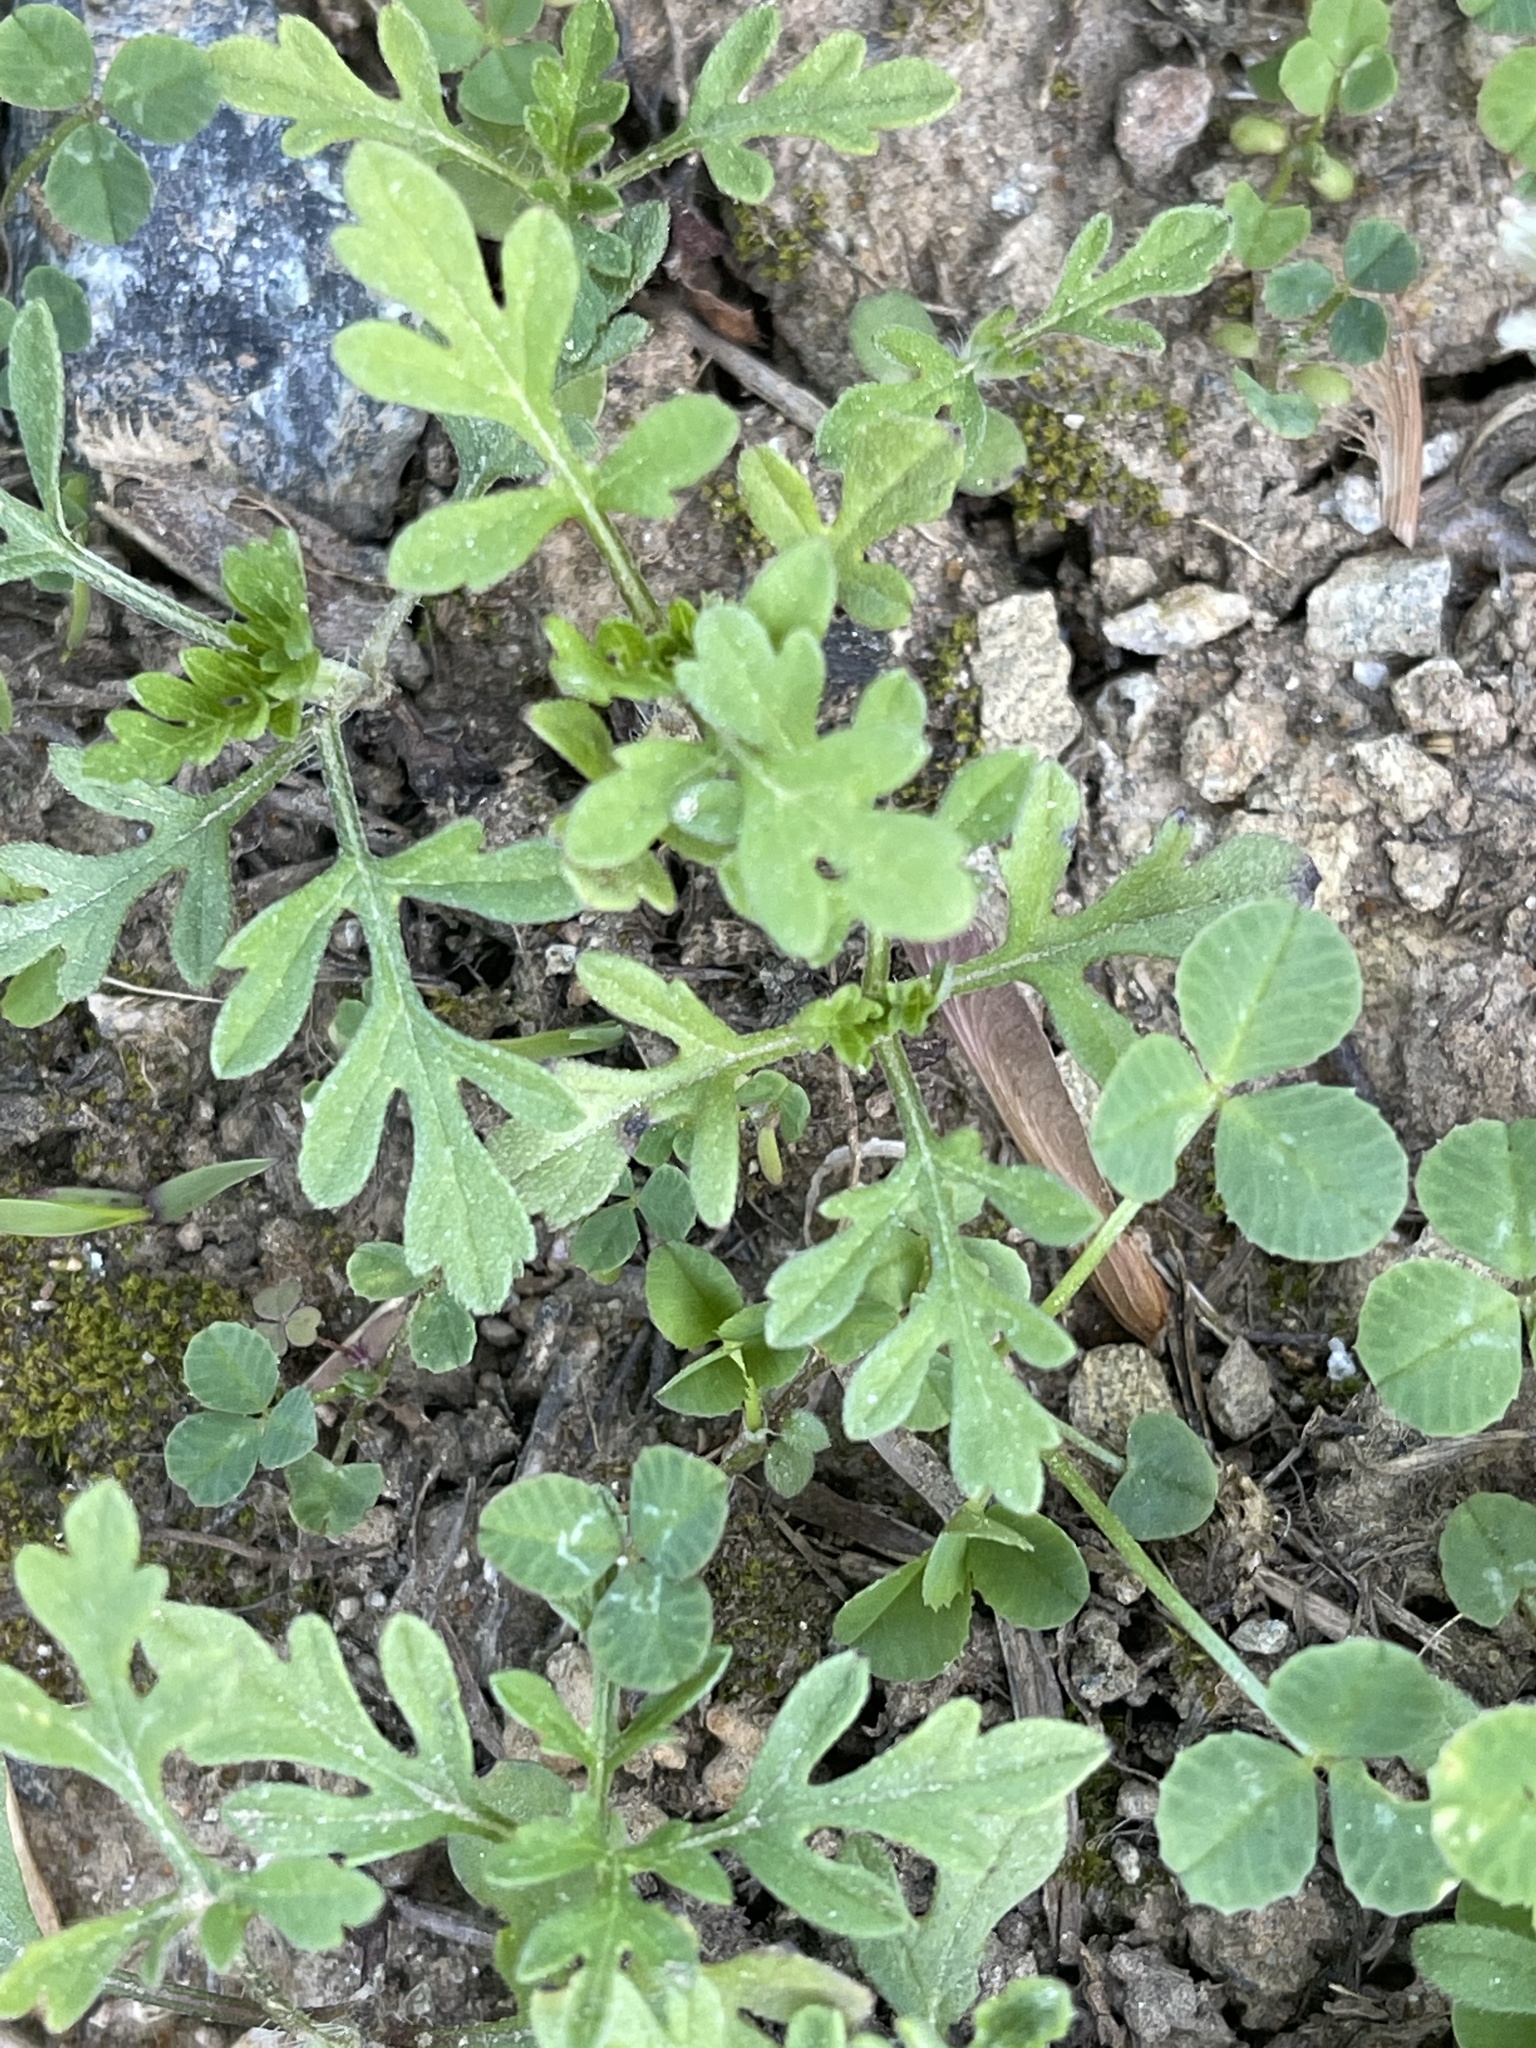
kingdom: Plantae
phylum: Tracheophyta
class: Magnoliopsida
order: Asterales
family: Asteraceae
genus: Ambrosia
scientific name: Ambrosia artemisiifolia
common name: Annual ragweed
